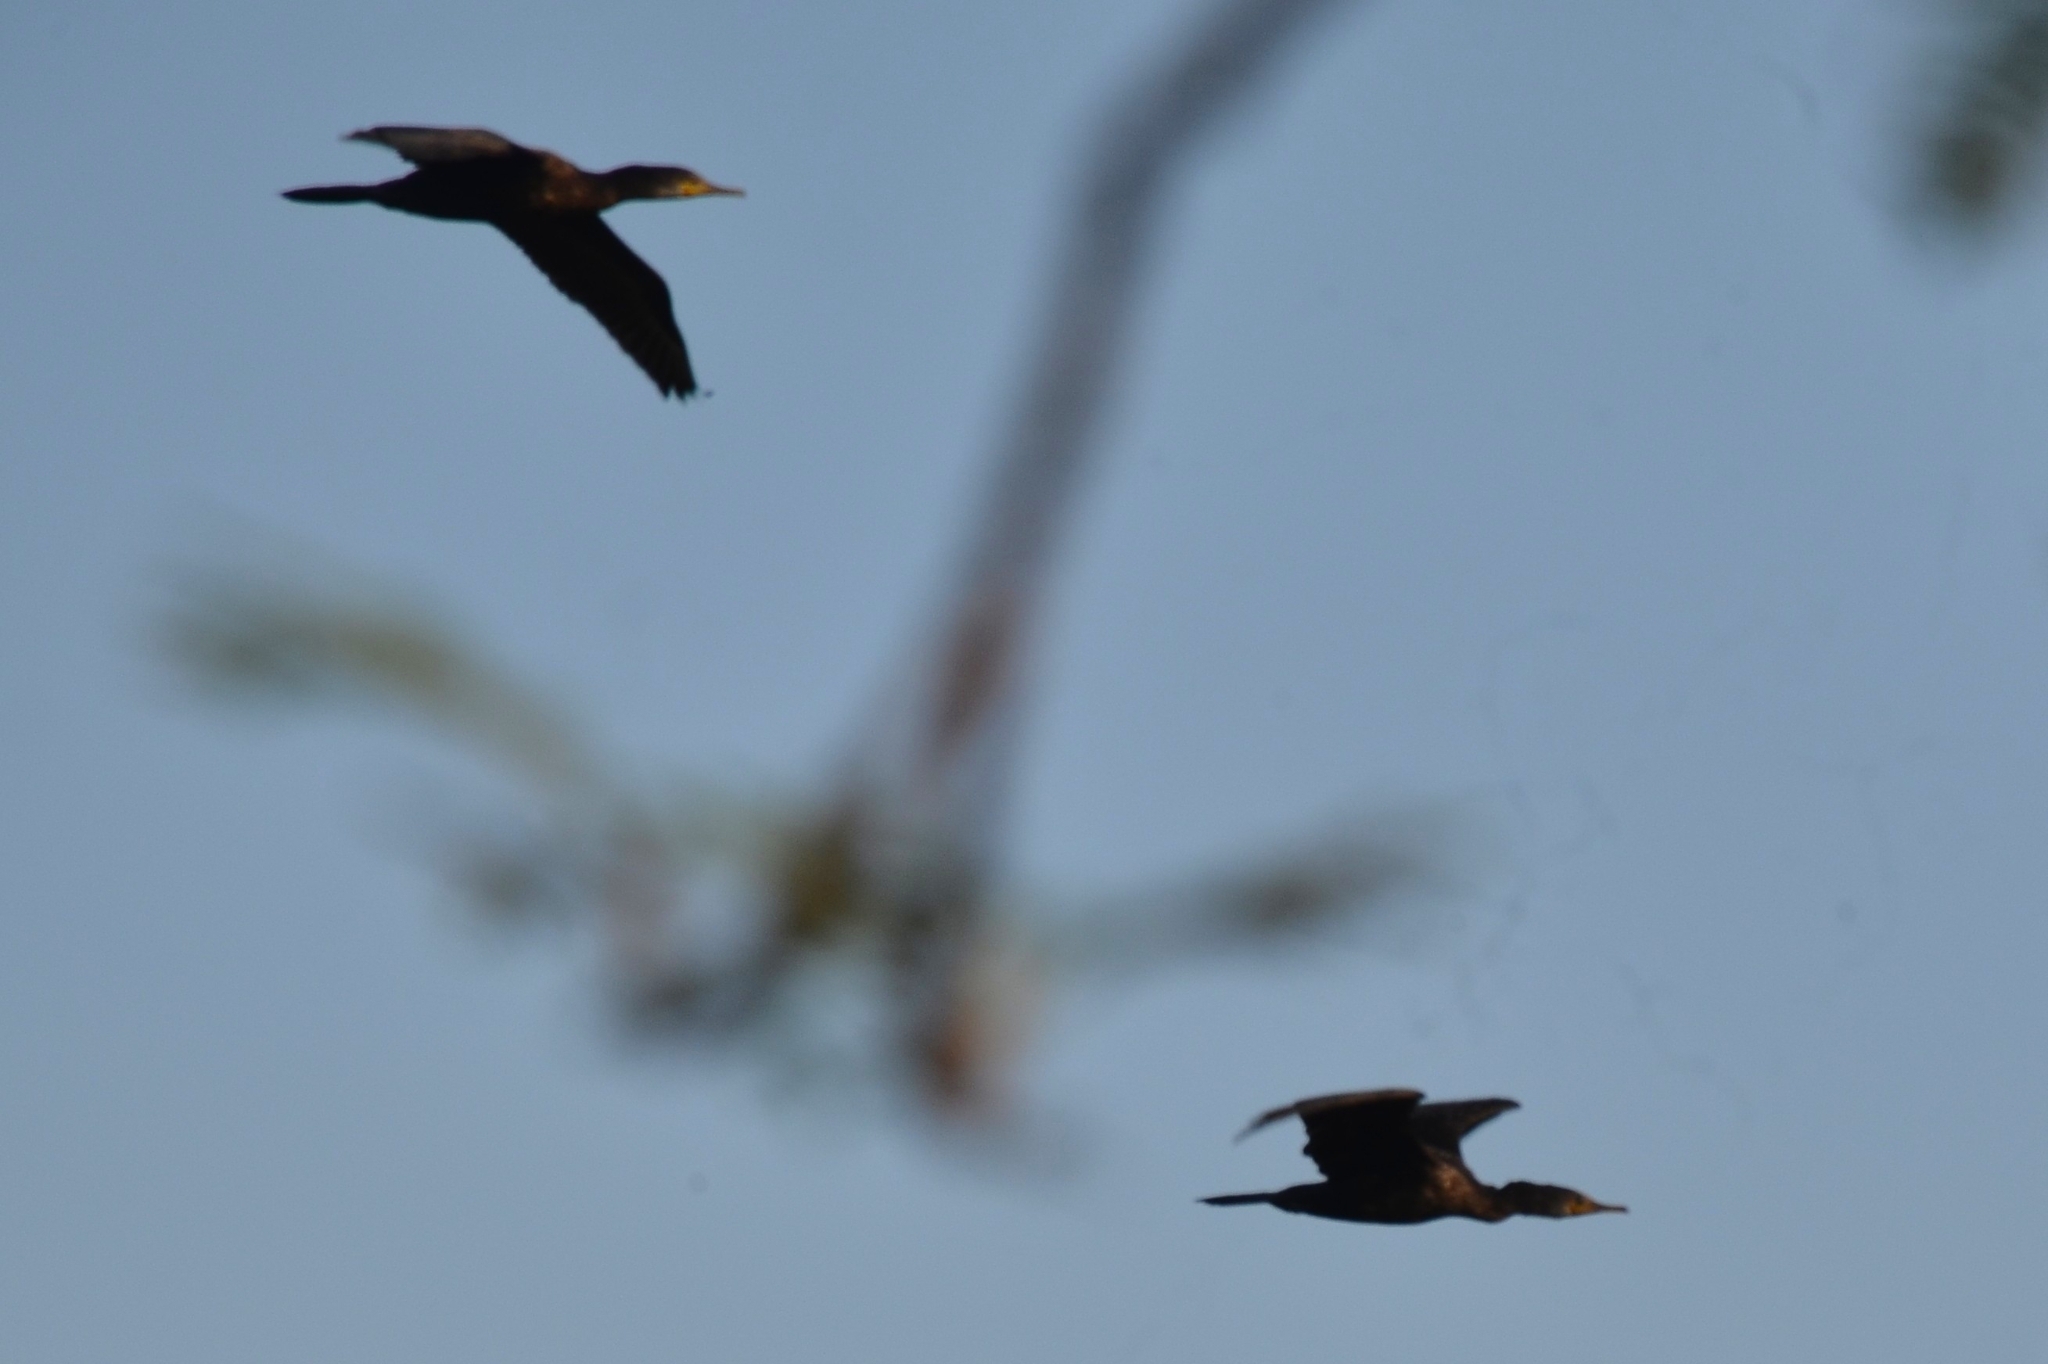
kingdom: Animalia
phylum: Chordata
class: Aves
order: Suliformes
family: Phalacrocoracidae
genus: Phalacrocorax
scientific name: Phalacrocorax fuscicollis
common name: Indian cormorant
